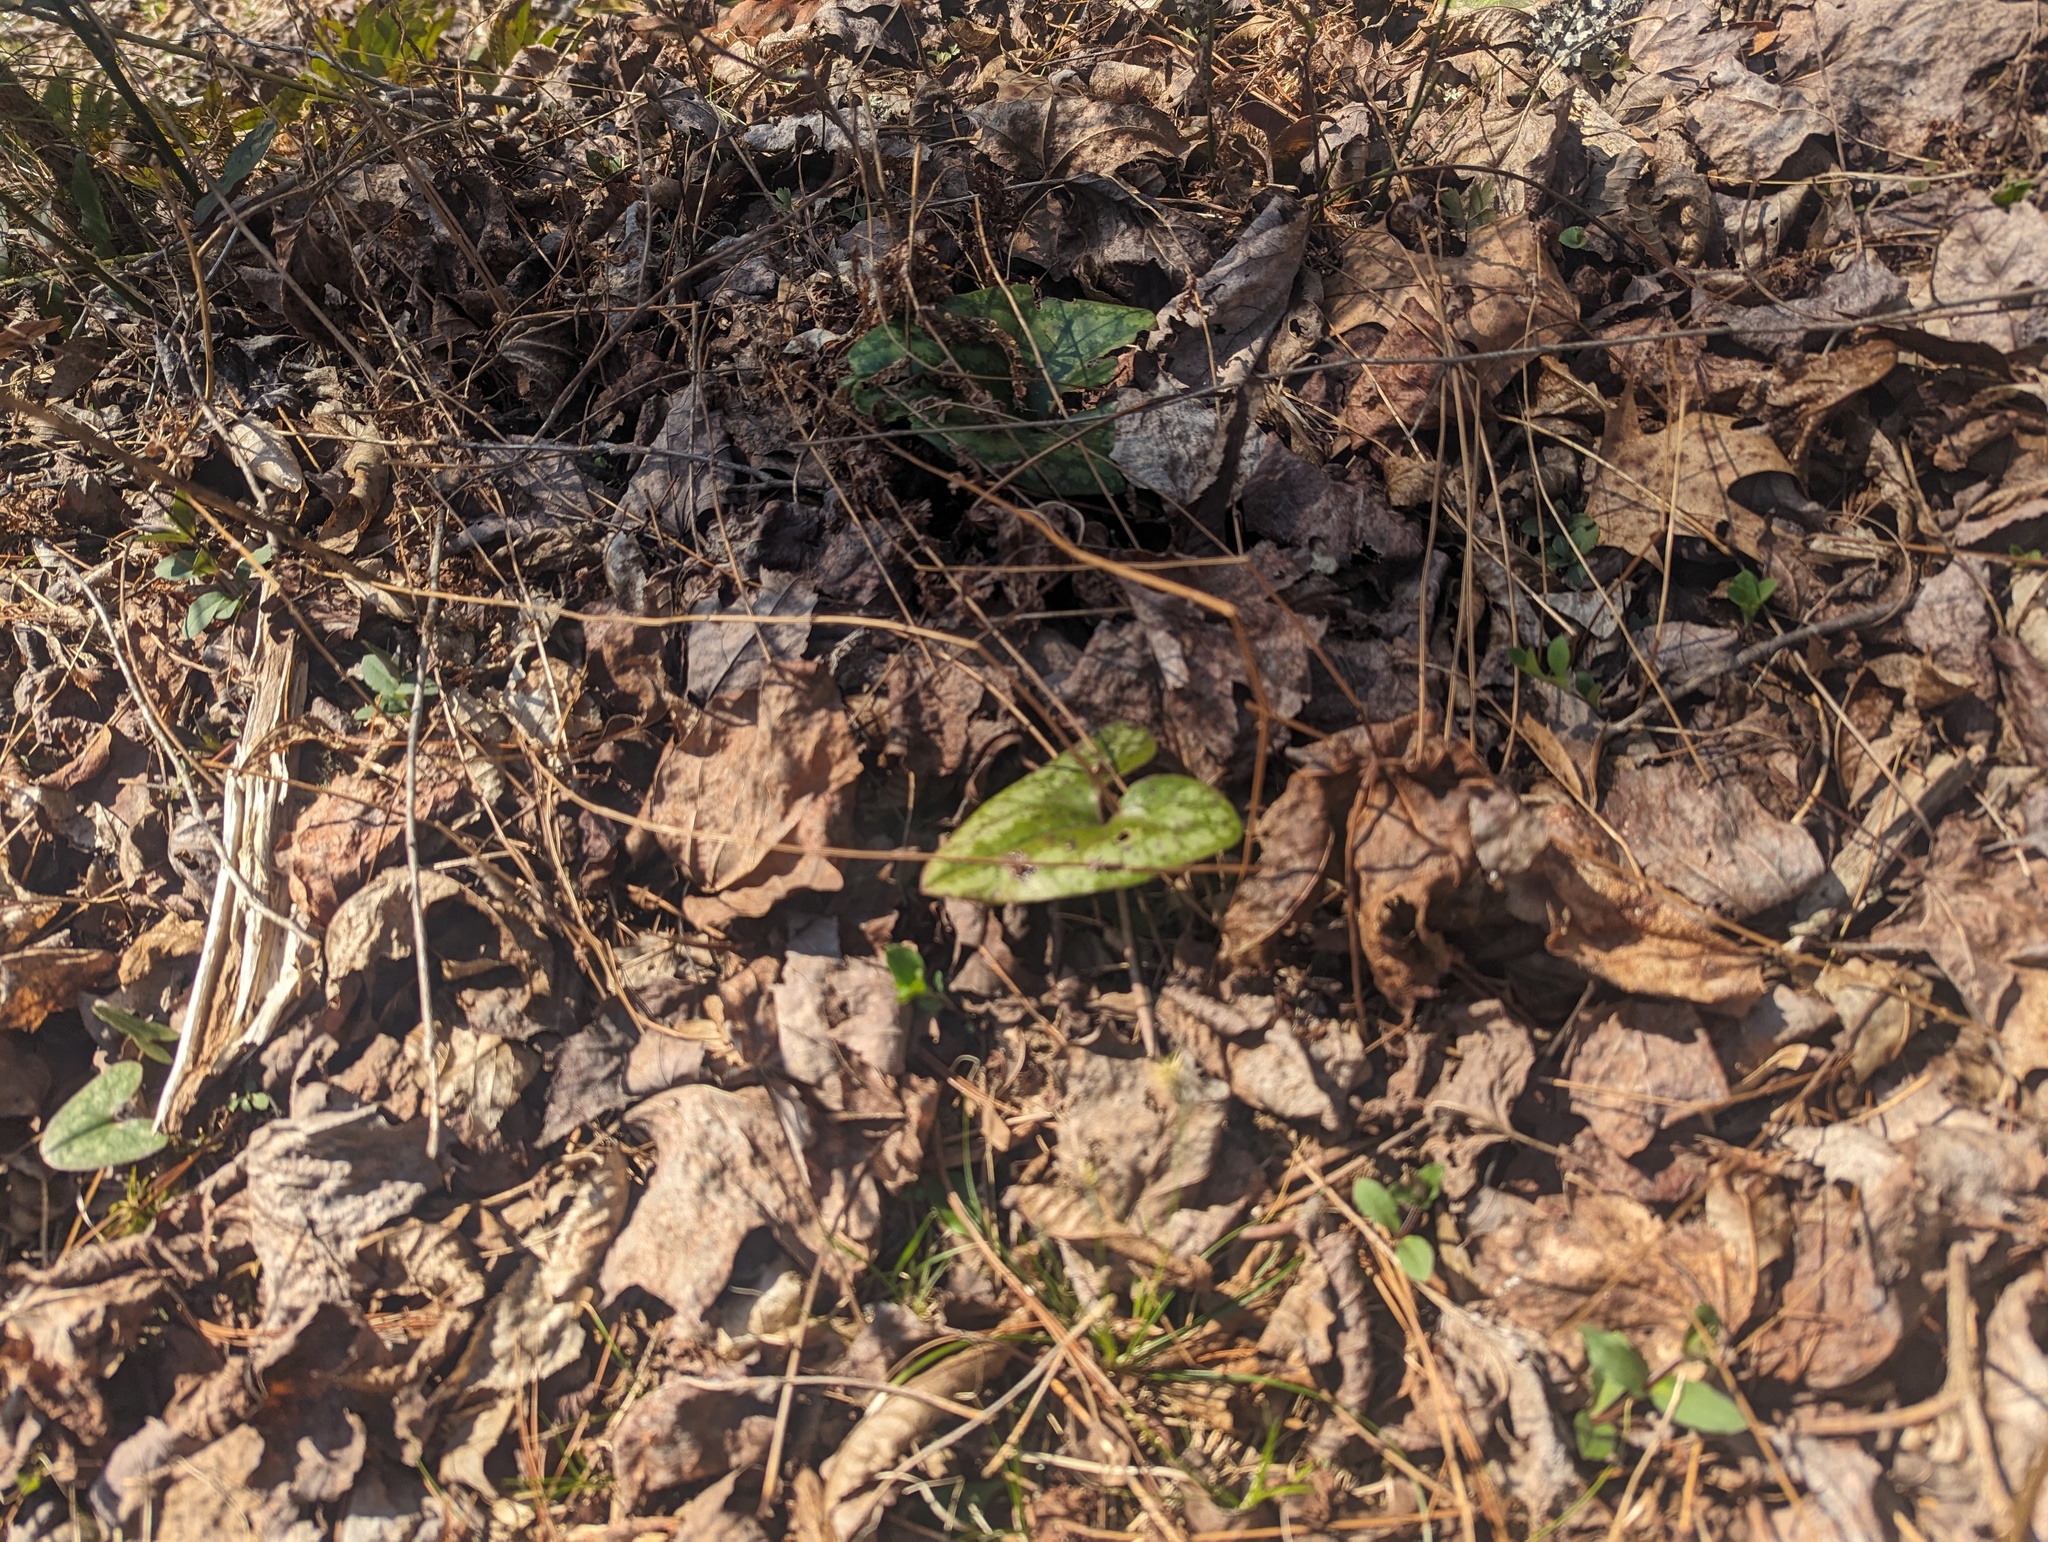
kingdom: Plantae
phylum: Tracheophyta
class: Magnoliopsida
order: Piperales
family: Aristolochiaceae
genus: Hexastylis
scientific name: Hexastylis arifolia
